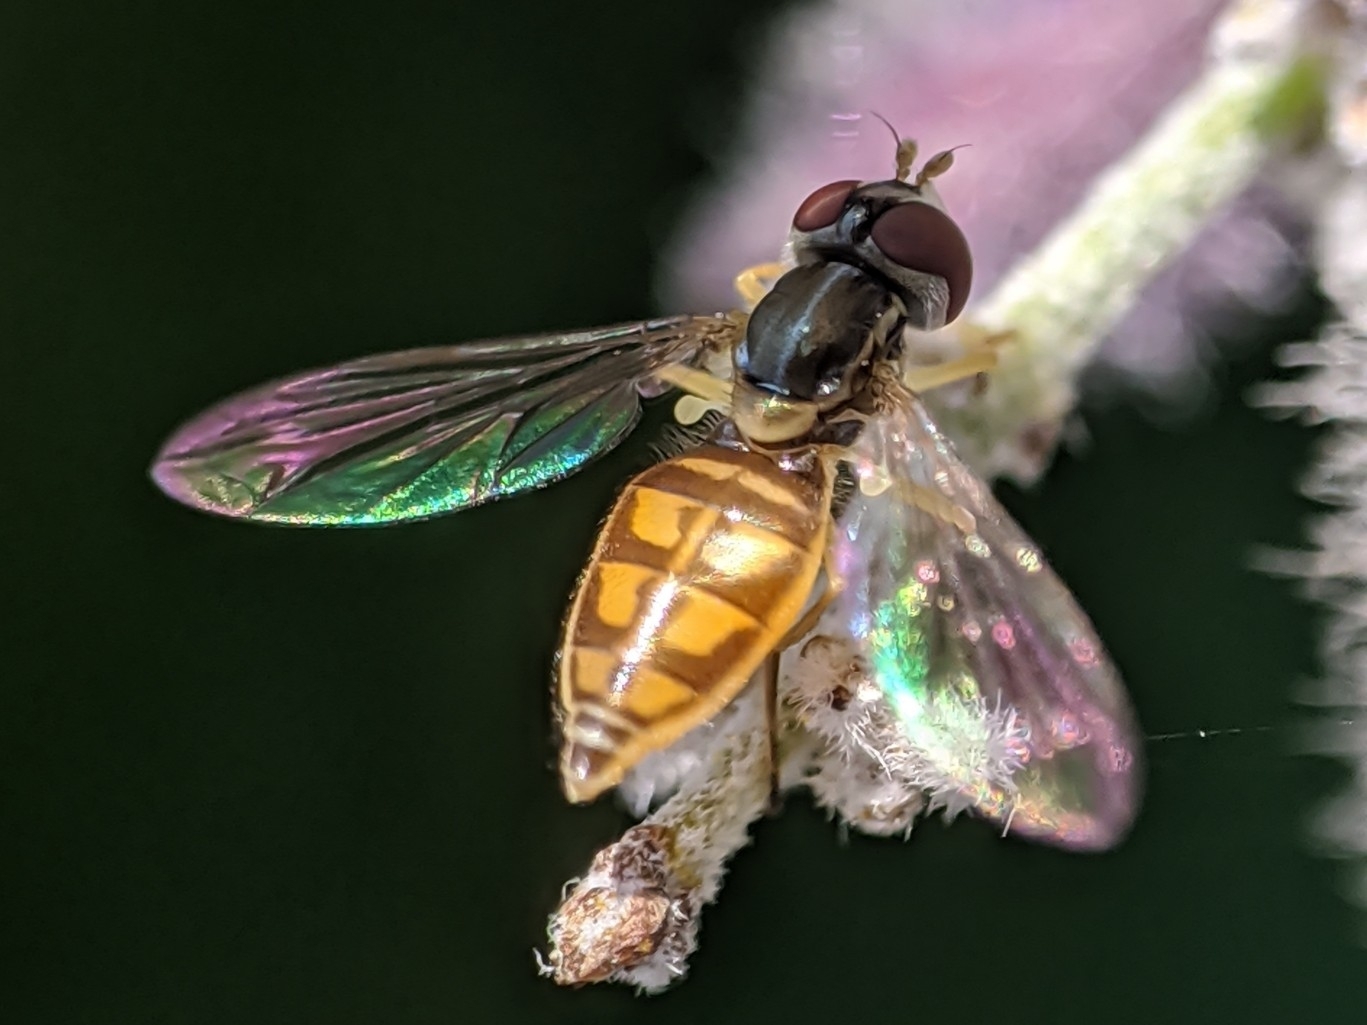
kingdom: Animalia
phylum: Arthropoda
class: Insecta
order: Diptera
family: Syrphidae
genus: Toxomerus
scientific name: Toxomerus marginatus
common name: Syrphid fly
